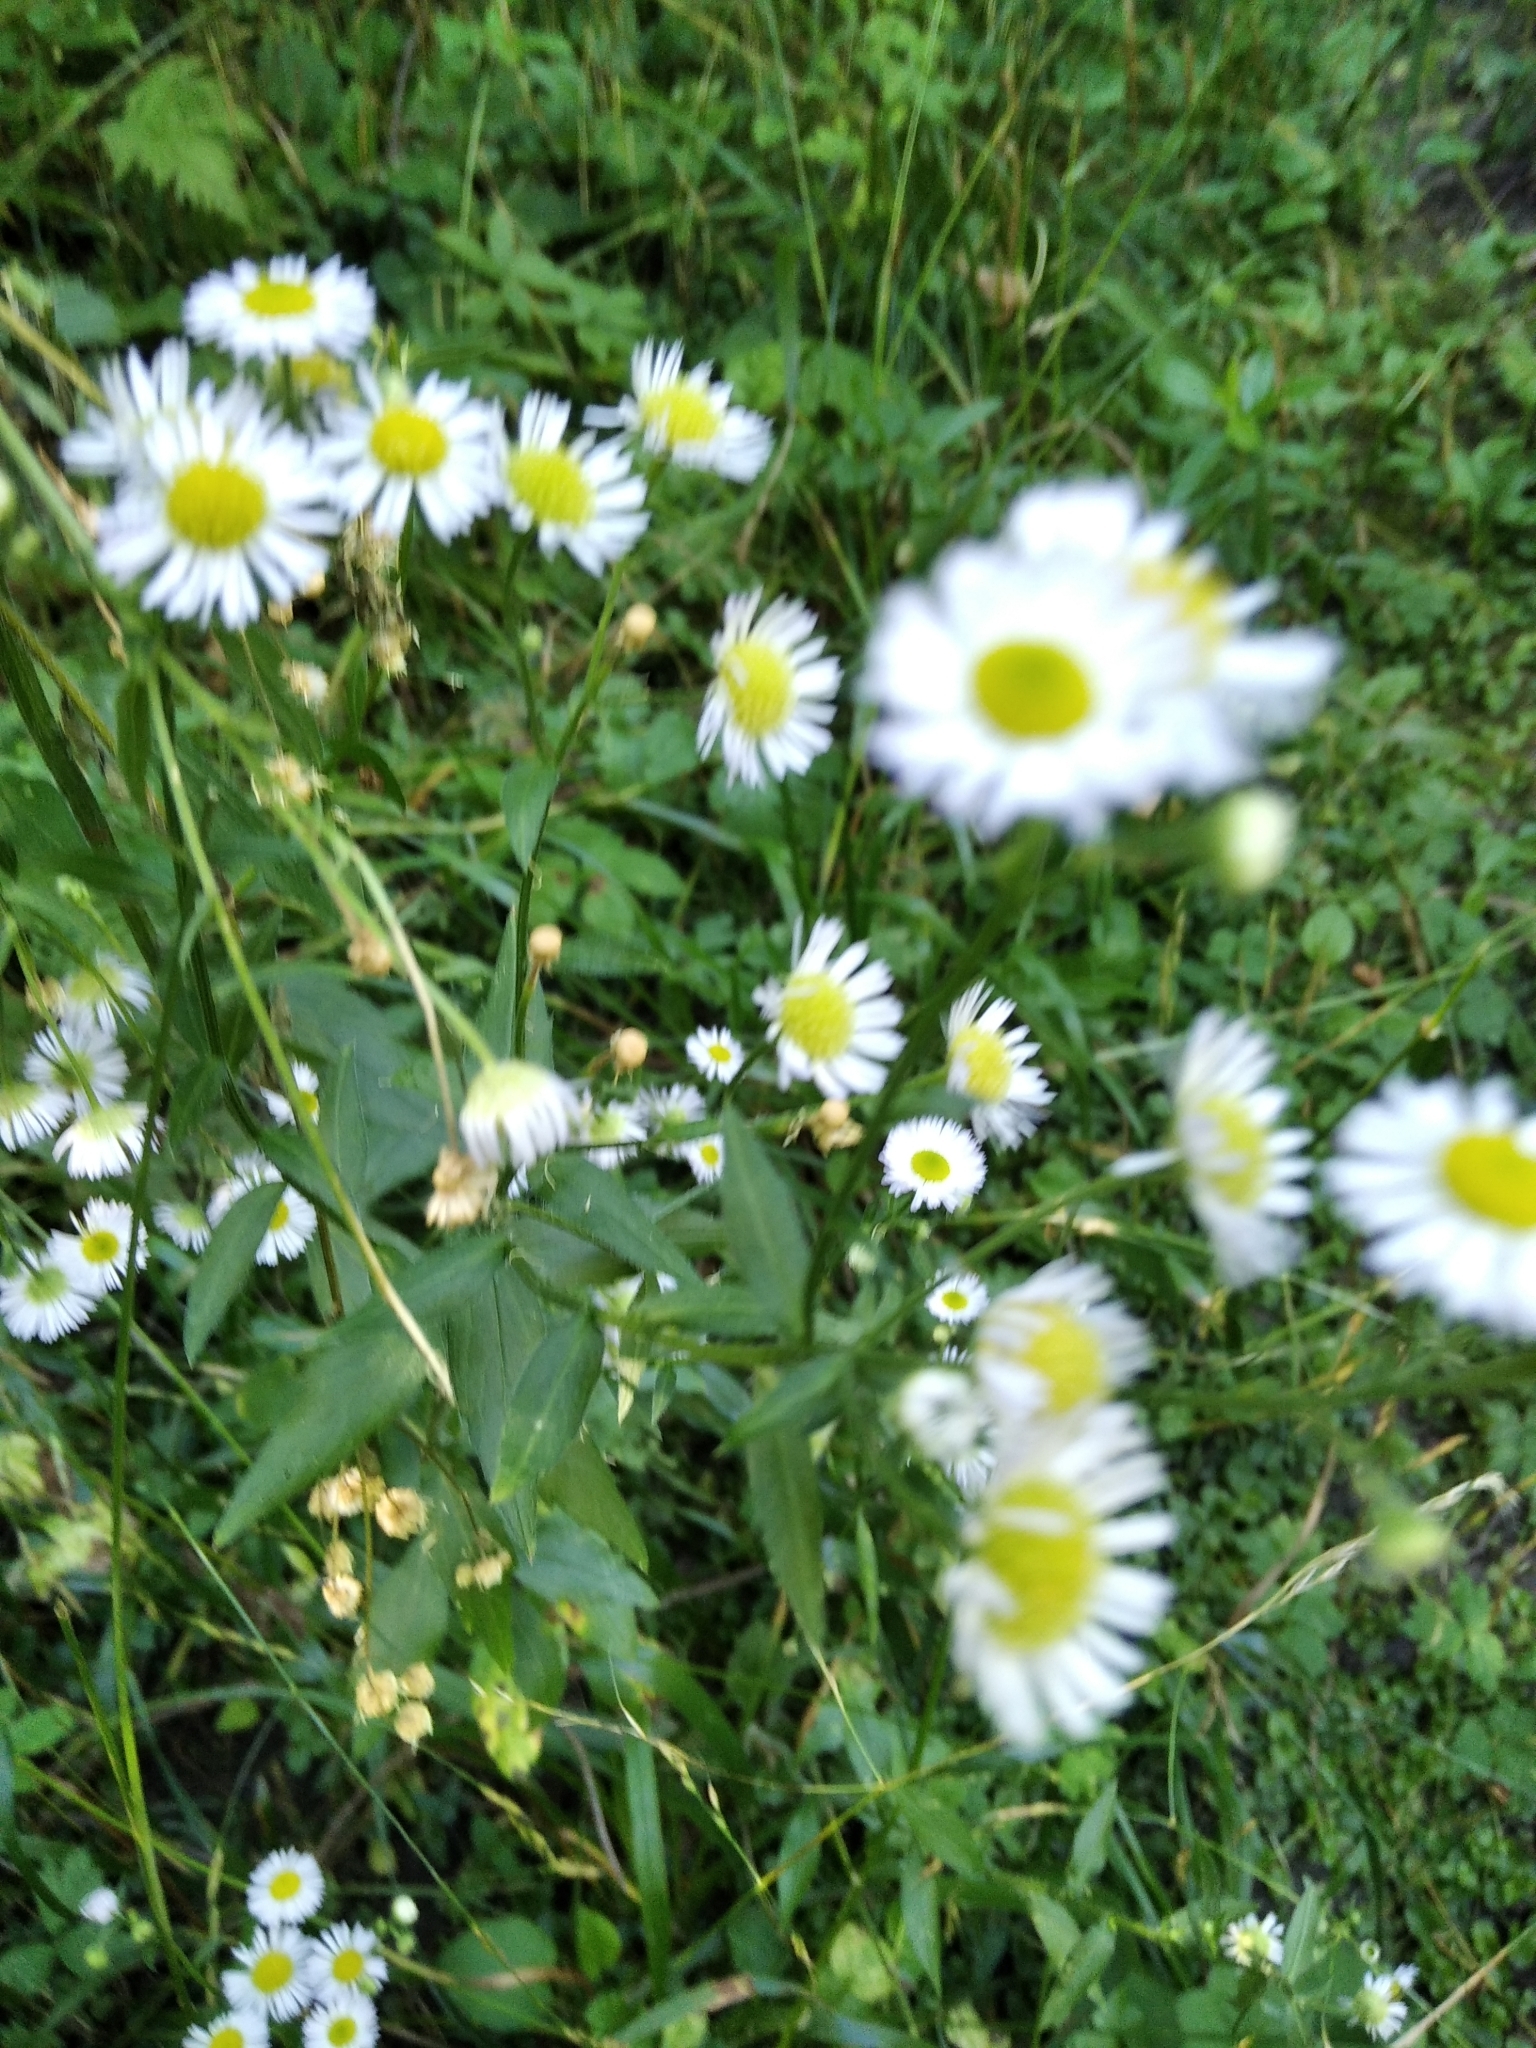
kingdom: Plantae
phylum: Tracheophyta
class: Magnoliopsida
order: Asterales
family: Asteraceae
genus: Erigeron
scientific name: Erigeron annuus
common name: Tall fleabane
